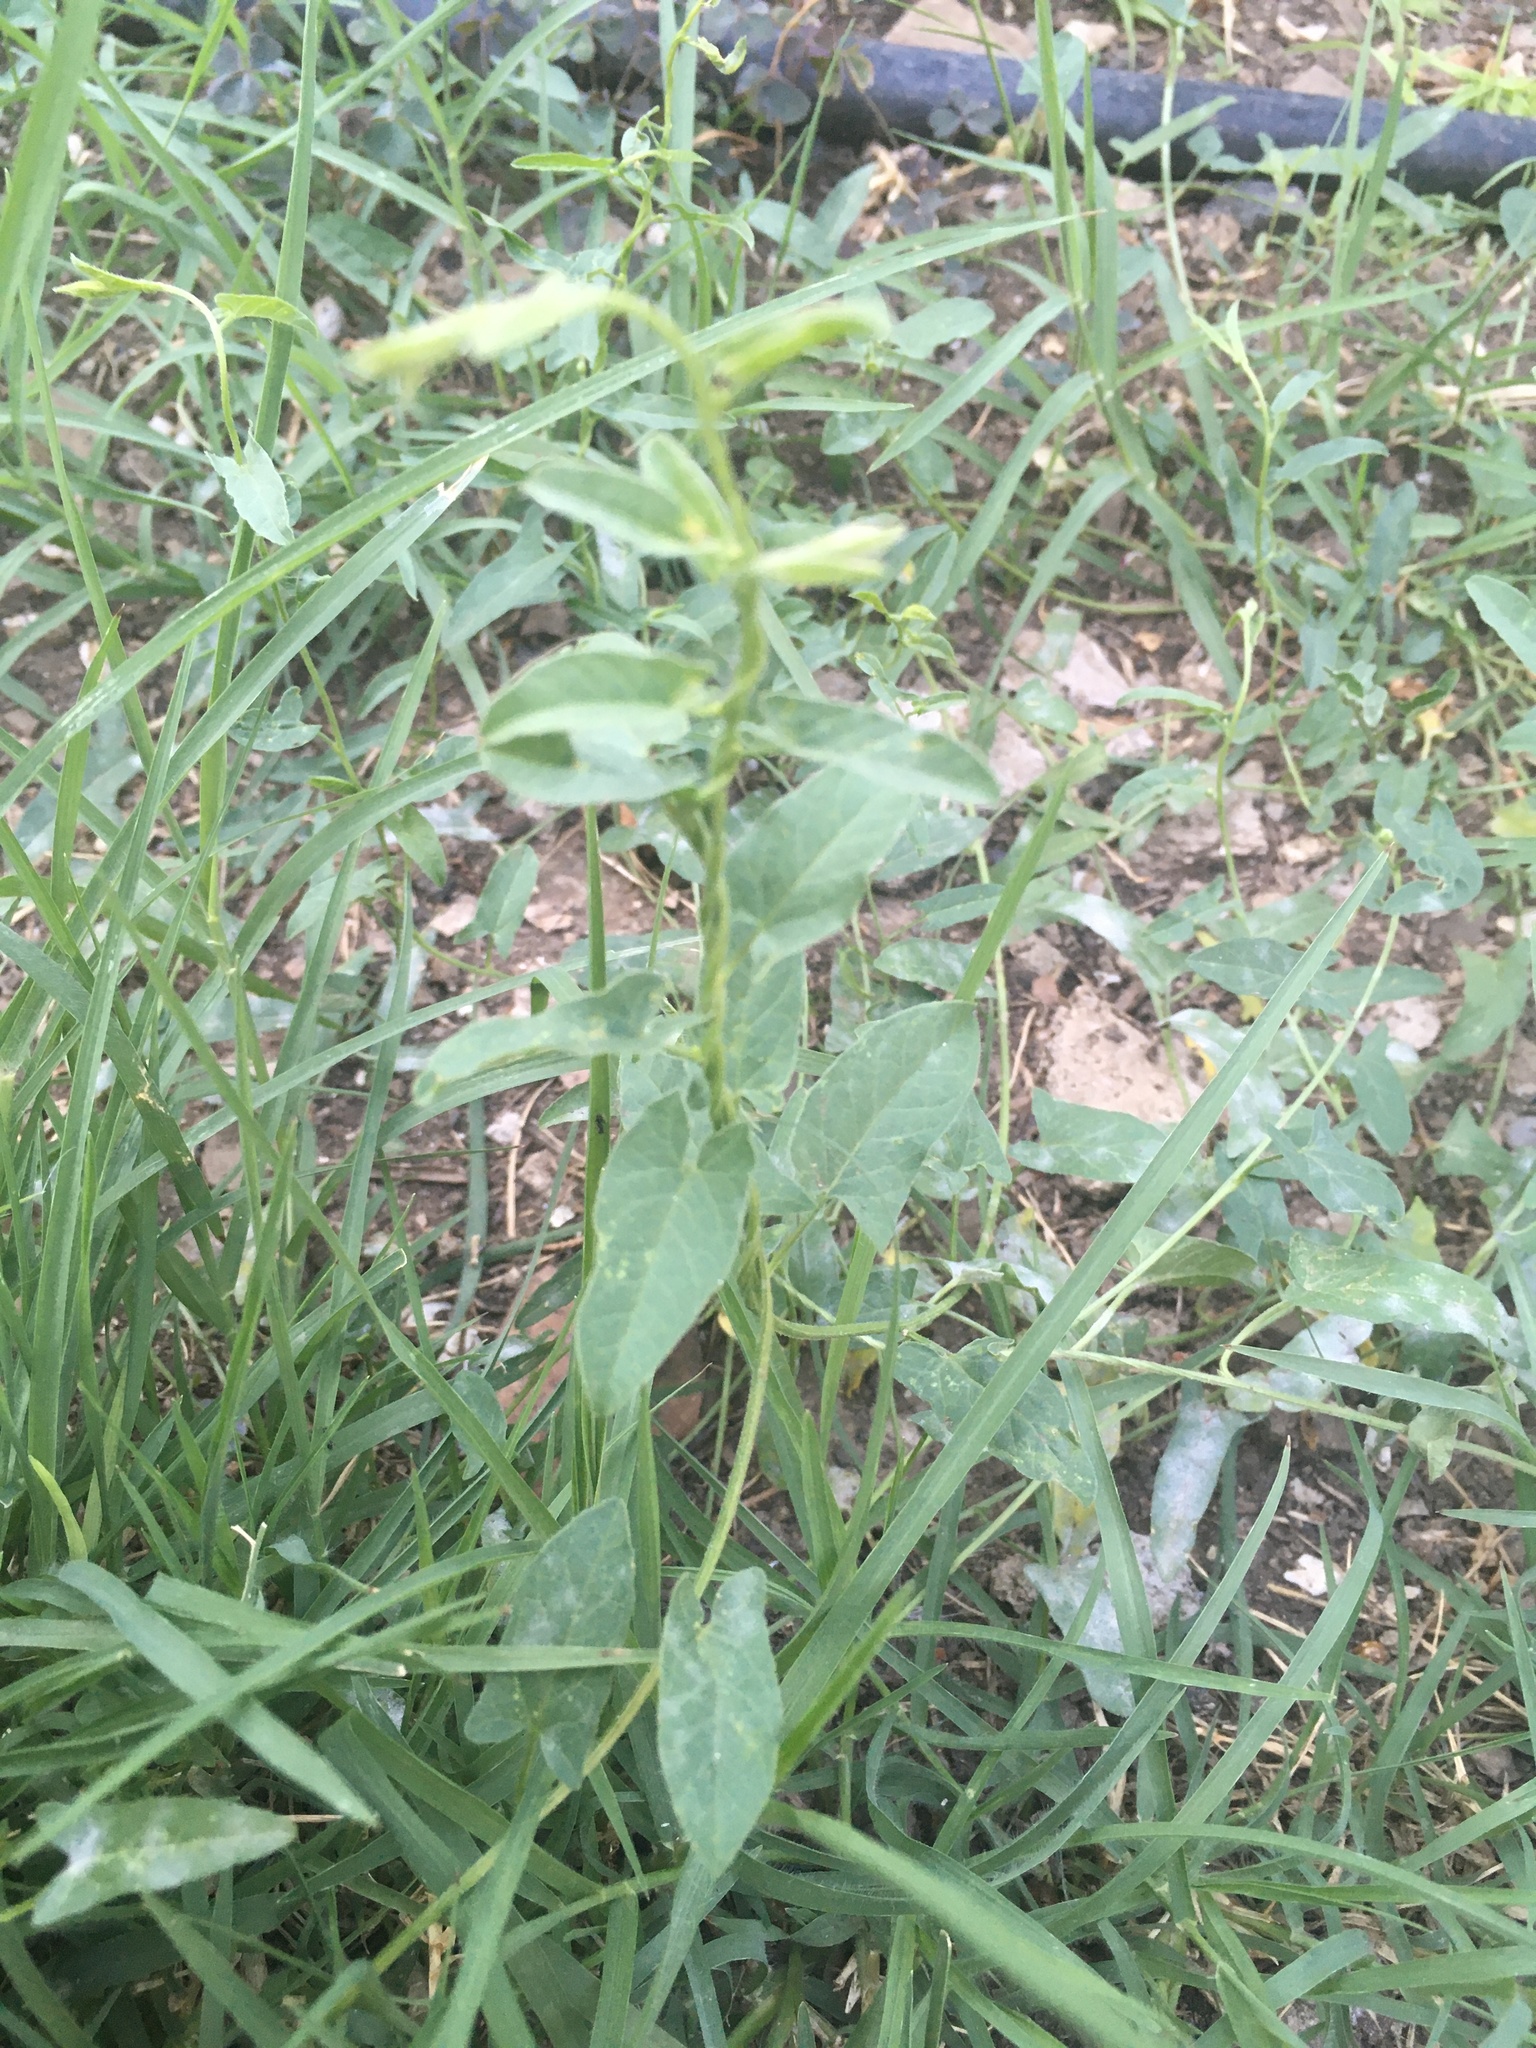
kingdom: Plantae
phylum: Tracheophyta
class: Magnoliopsida
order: Solanales
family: Convolvulaceae
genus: Convolvulus
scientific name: Convolvulus arvensis
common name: Field bindweed
